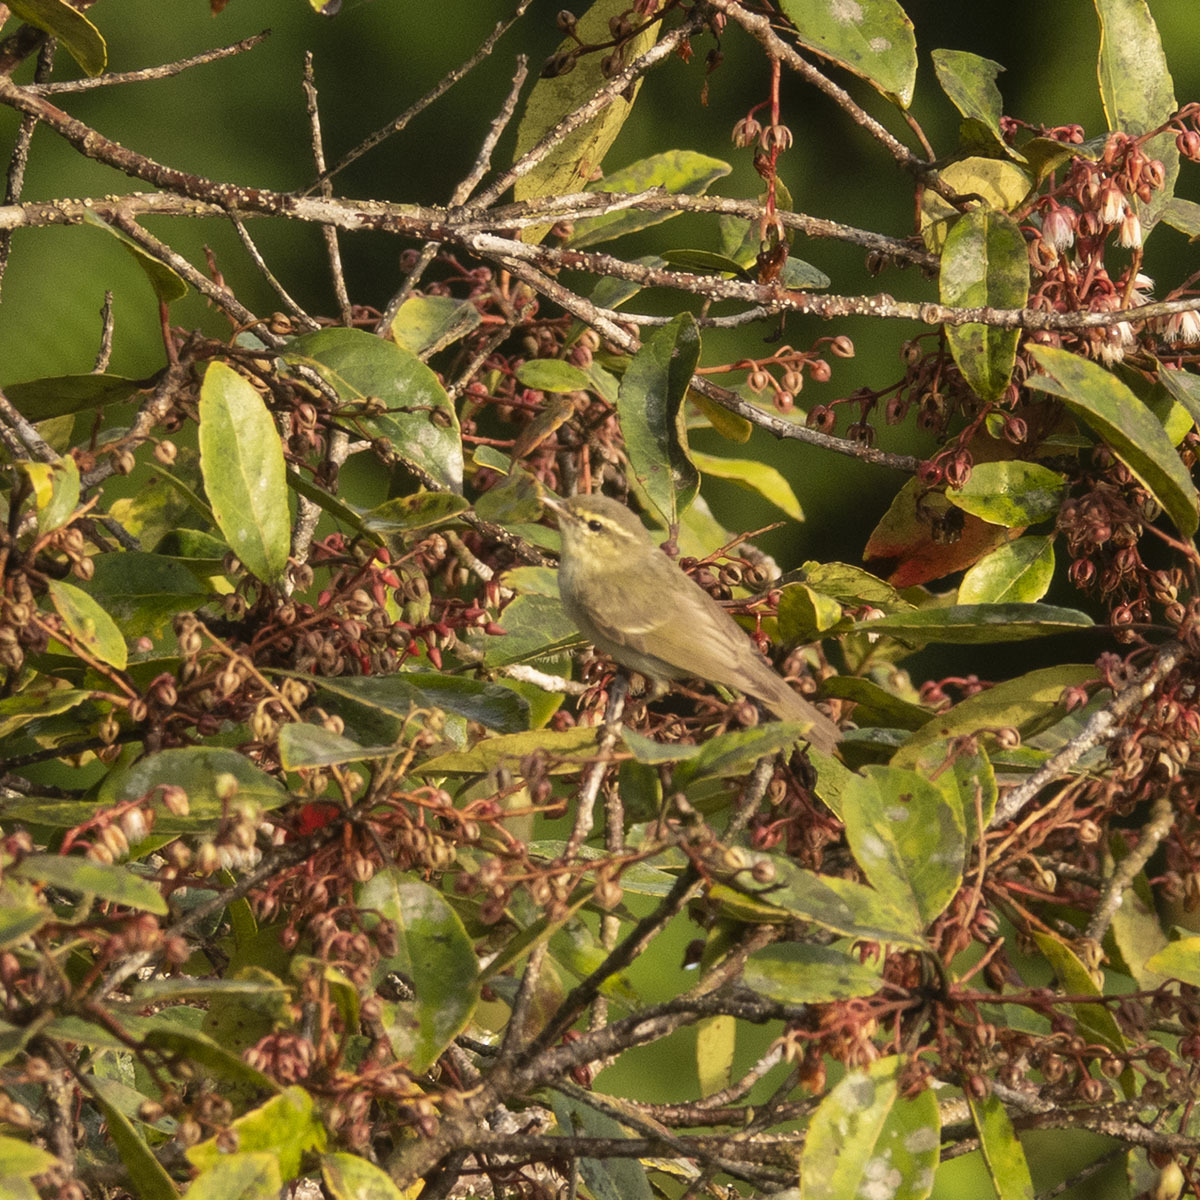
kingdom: Animalia
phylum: Chordata
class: Aves
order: Passeriformes
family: Phylloscopidae
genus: Phylloscopus
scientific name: Phylloscopus trochiloides
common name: Greenish warbler
